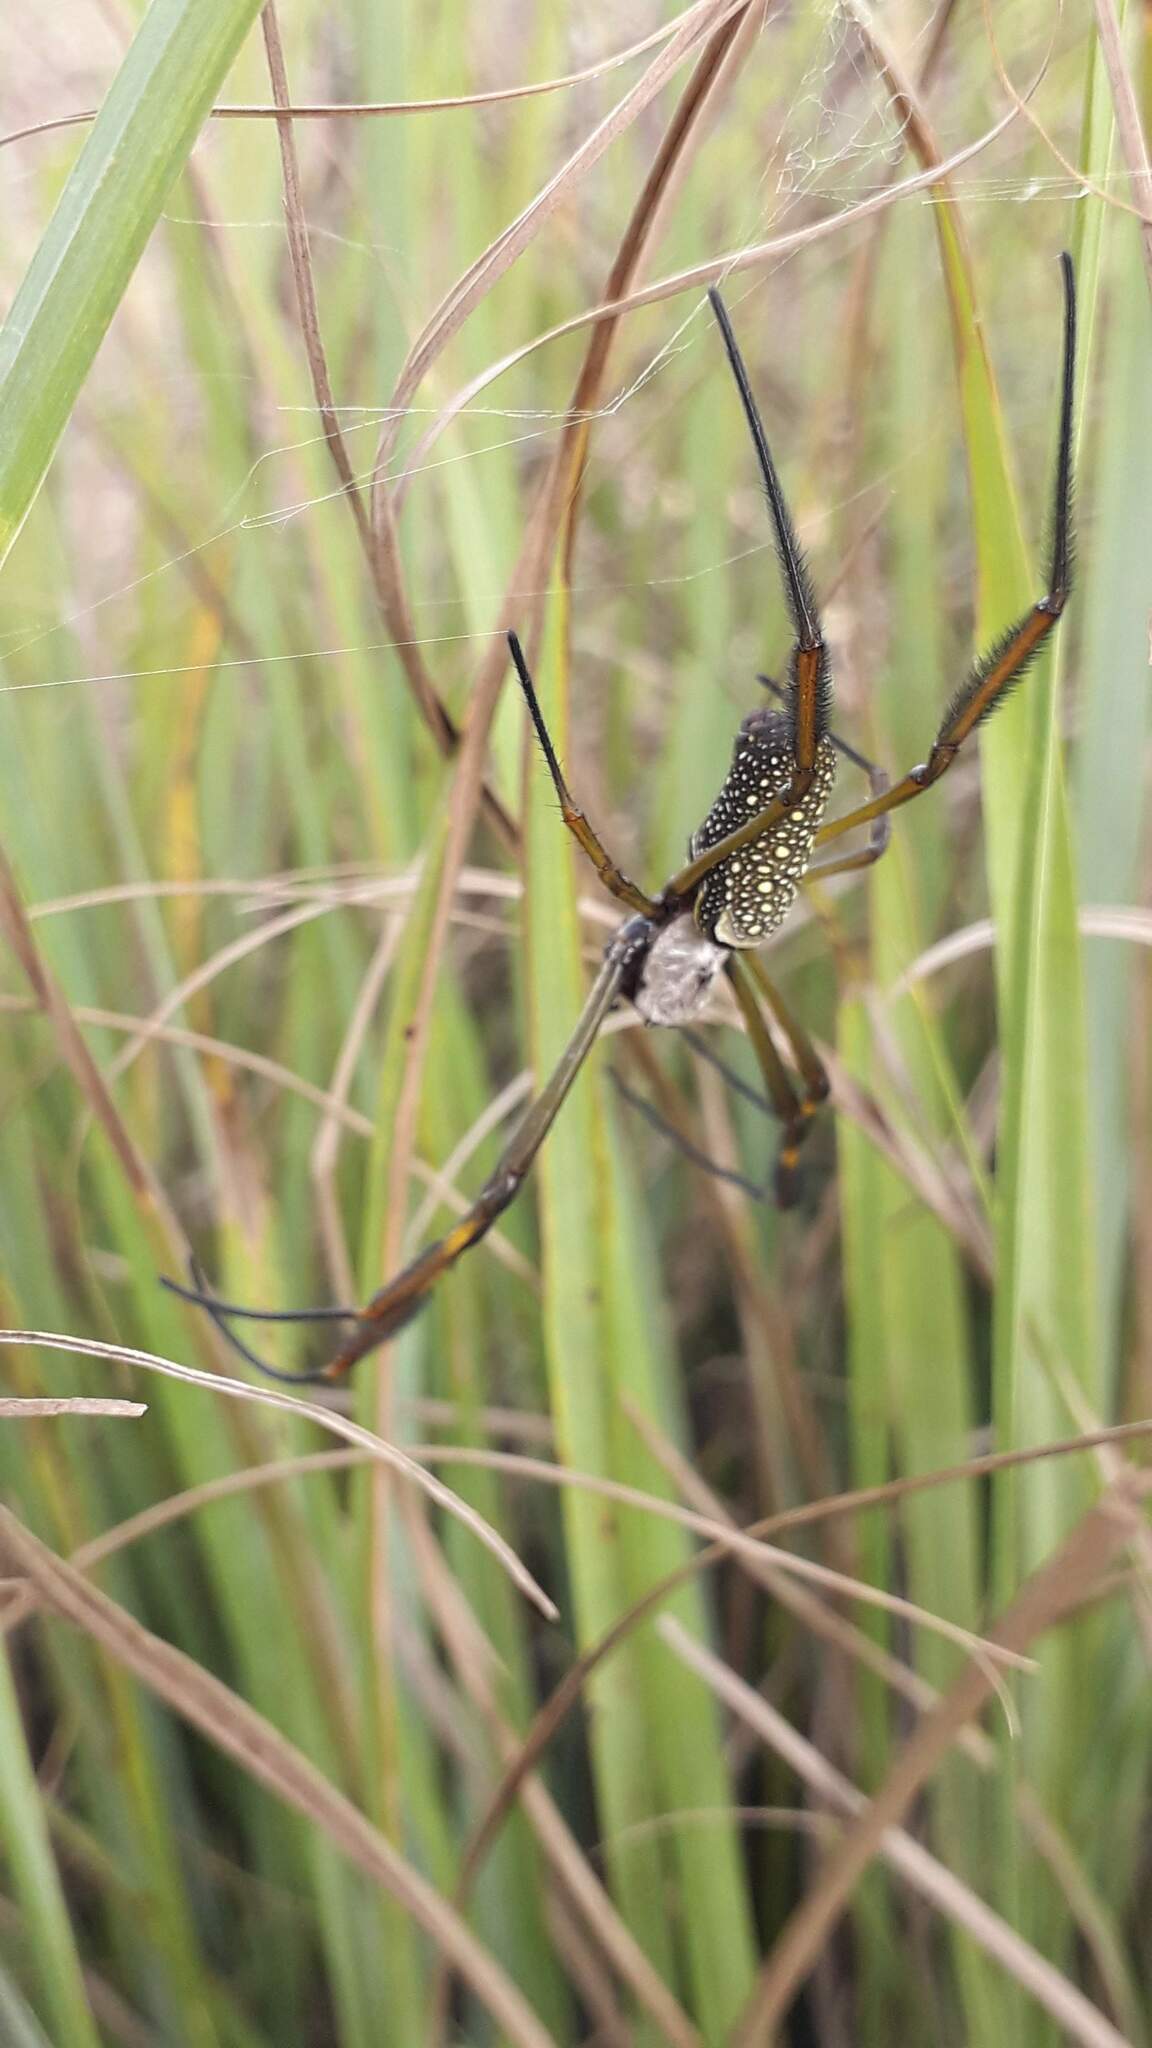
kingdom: Animalia
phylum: Arthropoda
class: Arachnida
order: Araneae
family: Araneidae
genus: Trichonephila
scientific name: Trichonephila clavipes
